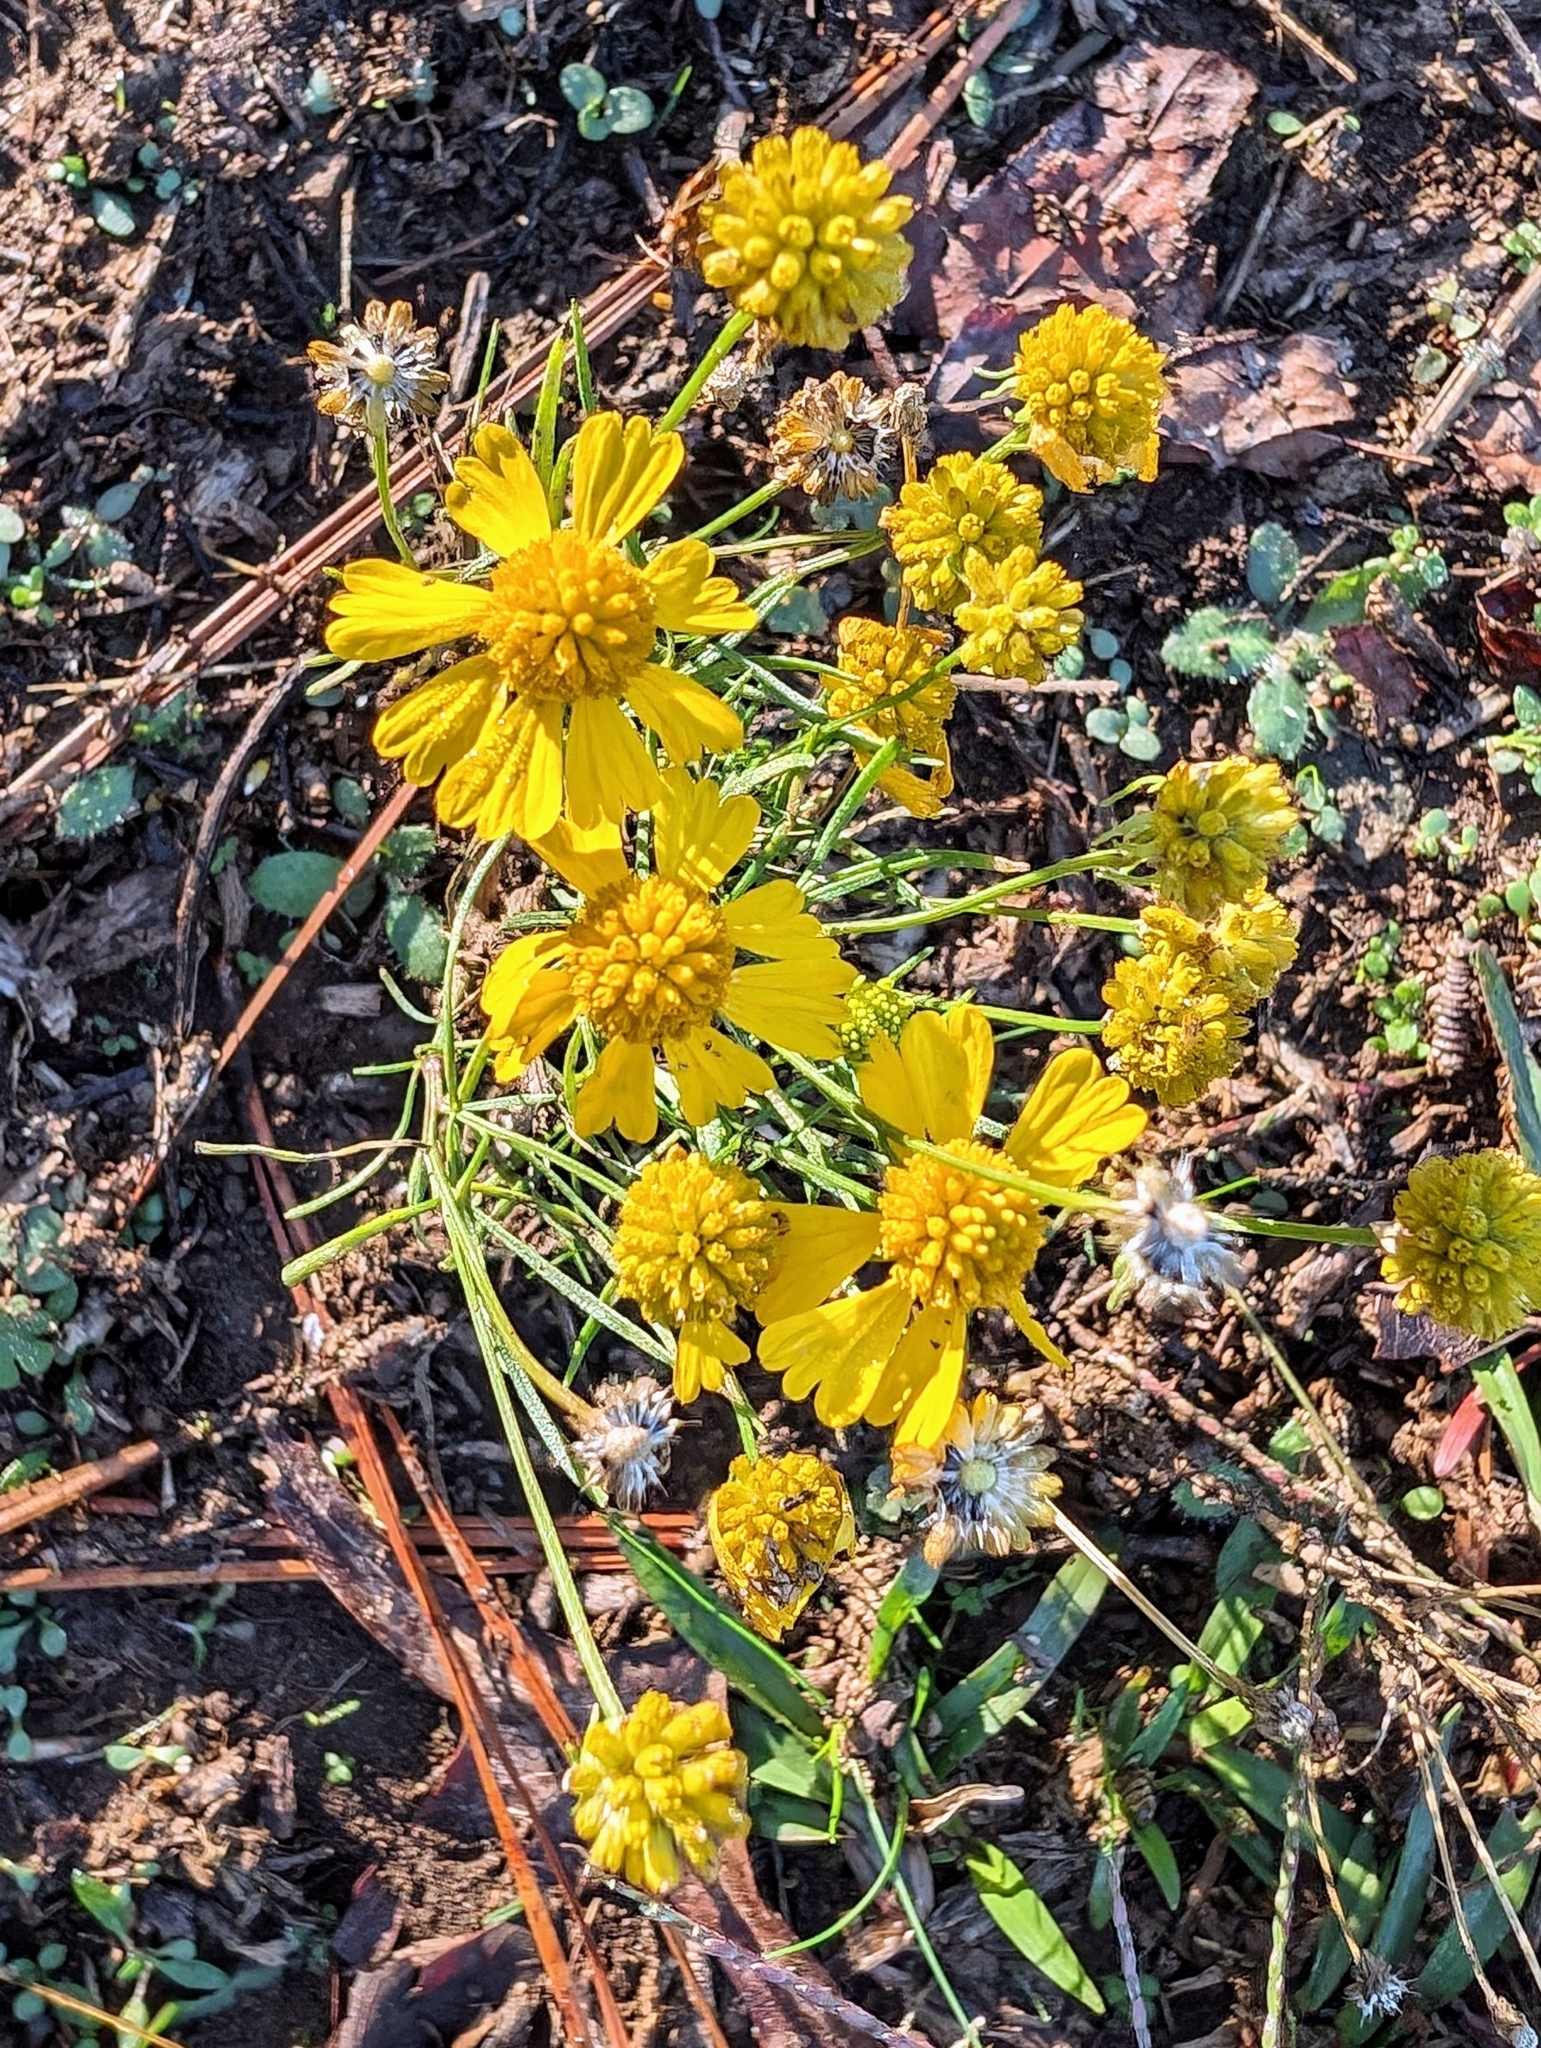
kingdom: Plantae
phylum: Tracheophyta
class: Magnoliopsida
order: Asterales
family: Asteraceae
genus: Helenium
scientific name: Helenium amarum
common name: Bitter sneezeweed
